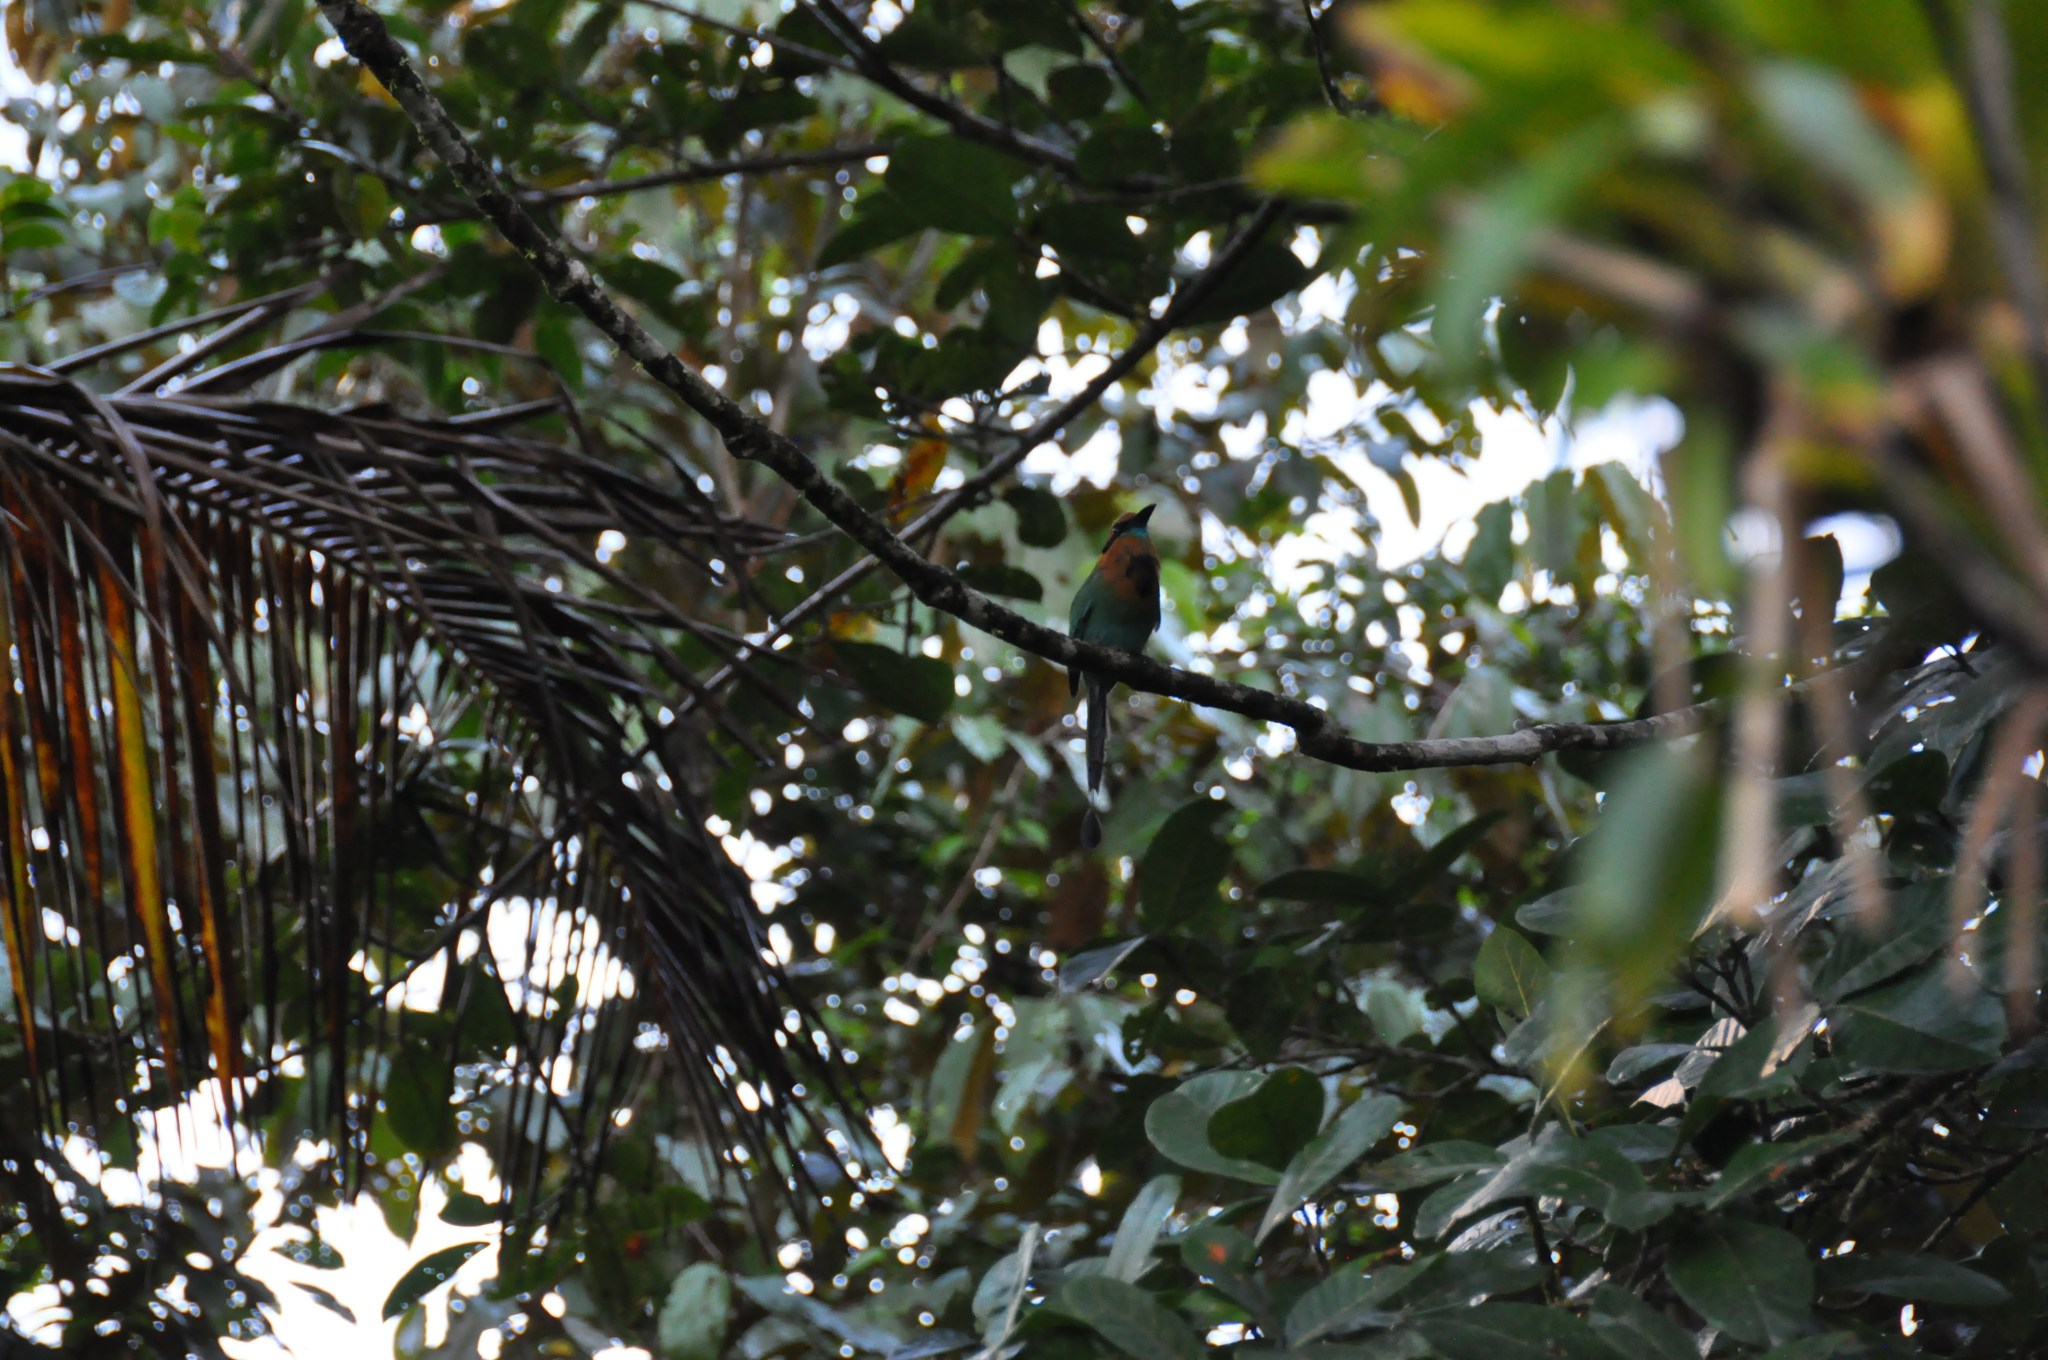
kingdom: Animalia
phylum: Chordata
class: Aves
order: Coraciiformes
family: Momotidae
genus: Electron
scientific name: Electron platyrhynchum
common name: Broad-billed motmot
